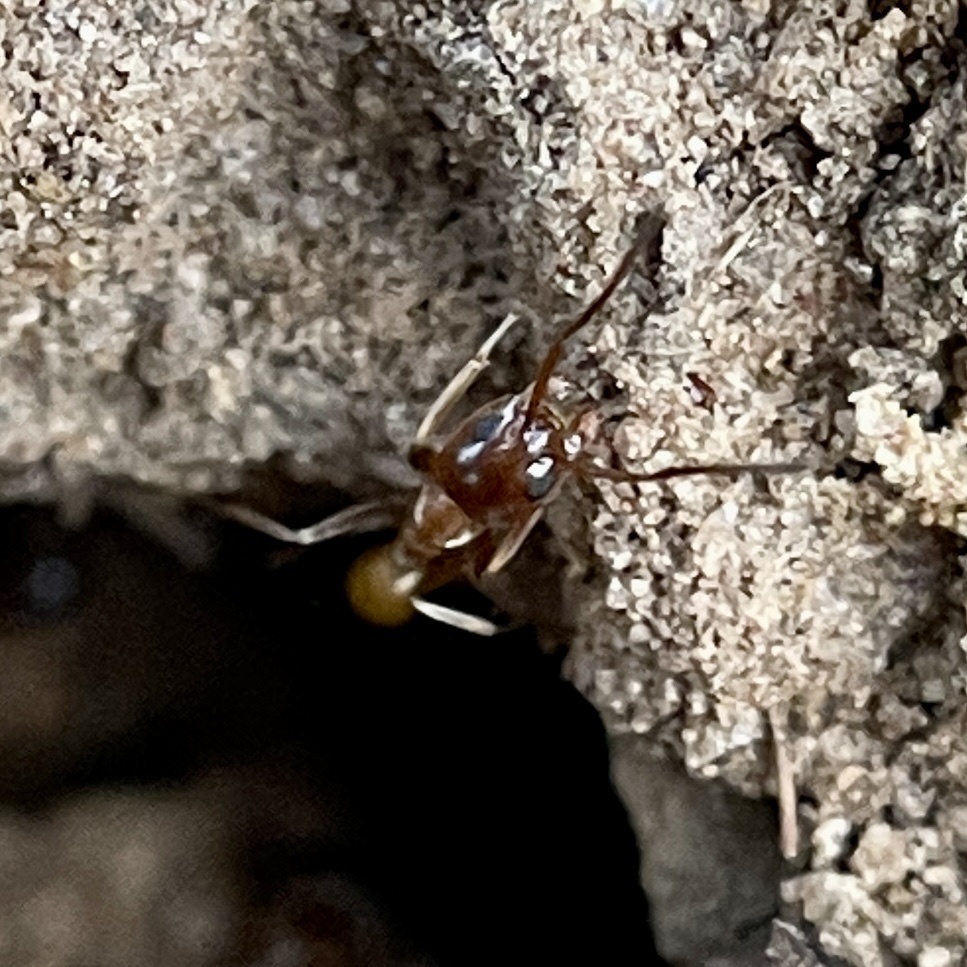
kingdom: Animalia
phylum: Arthropoda
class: Insecta
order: Hymenoptera
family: Formicidae
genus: Dorymyrmex
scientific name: Dorymyrmex flavus
